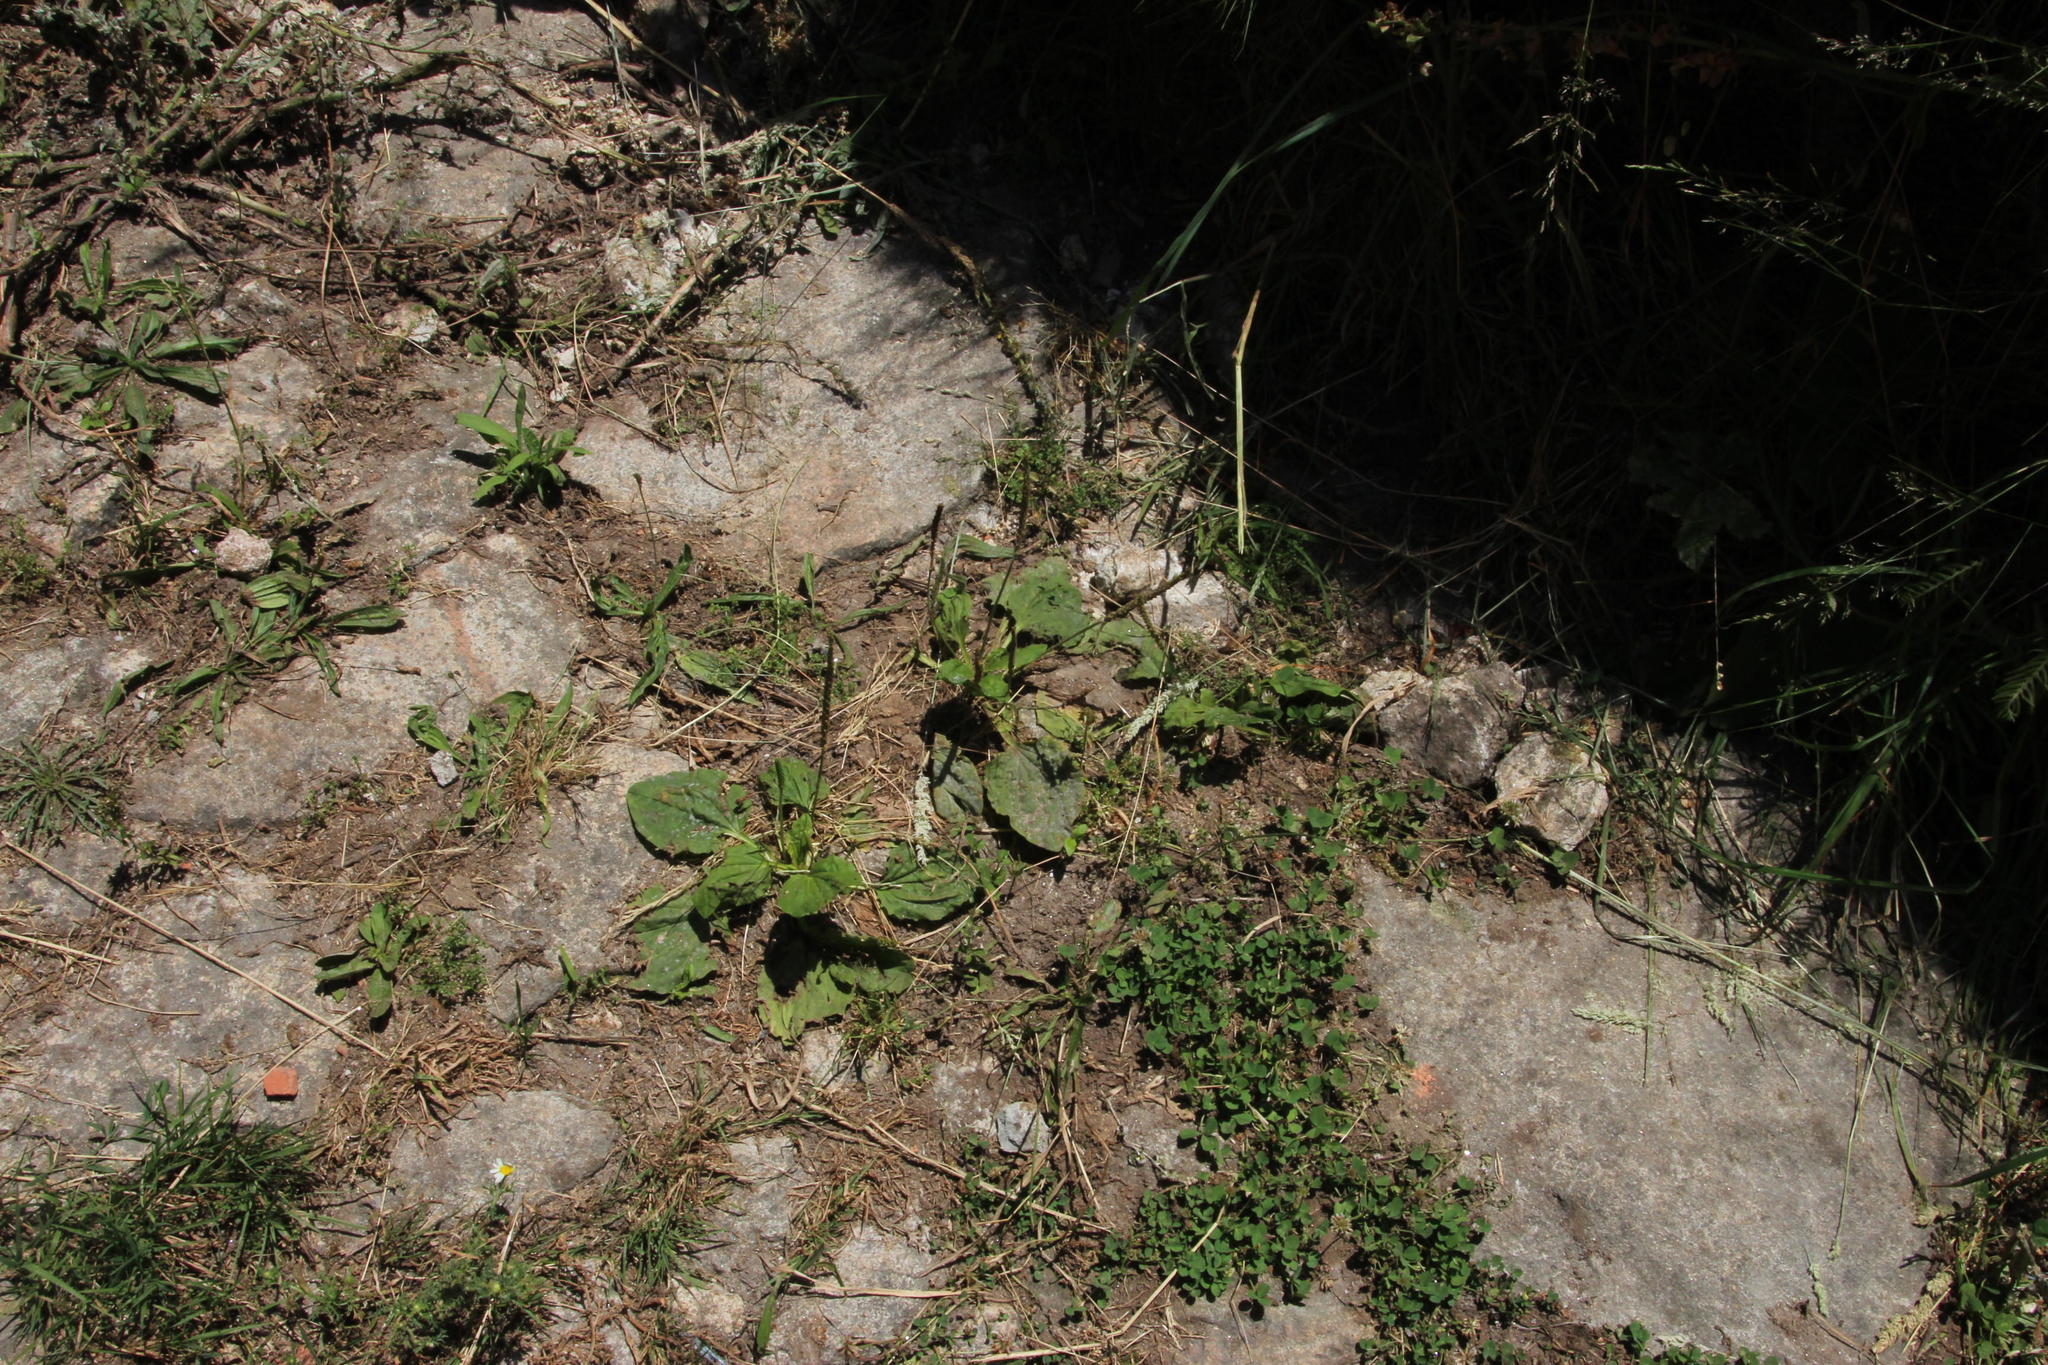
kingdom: Plantae
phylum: Tracheophyta
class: Magnoliopsida
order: Lamiales
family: Plantaginaceae
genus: Plantago
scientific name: Plantago major
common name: Common plantain
